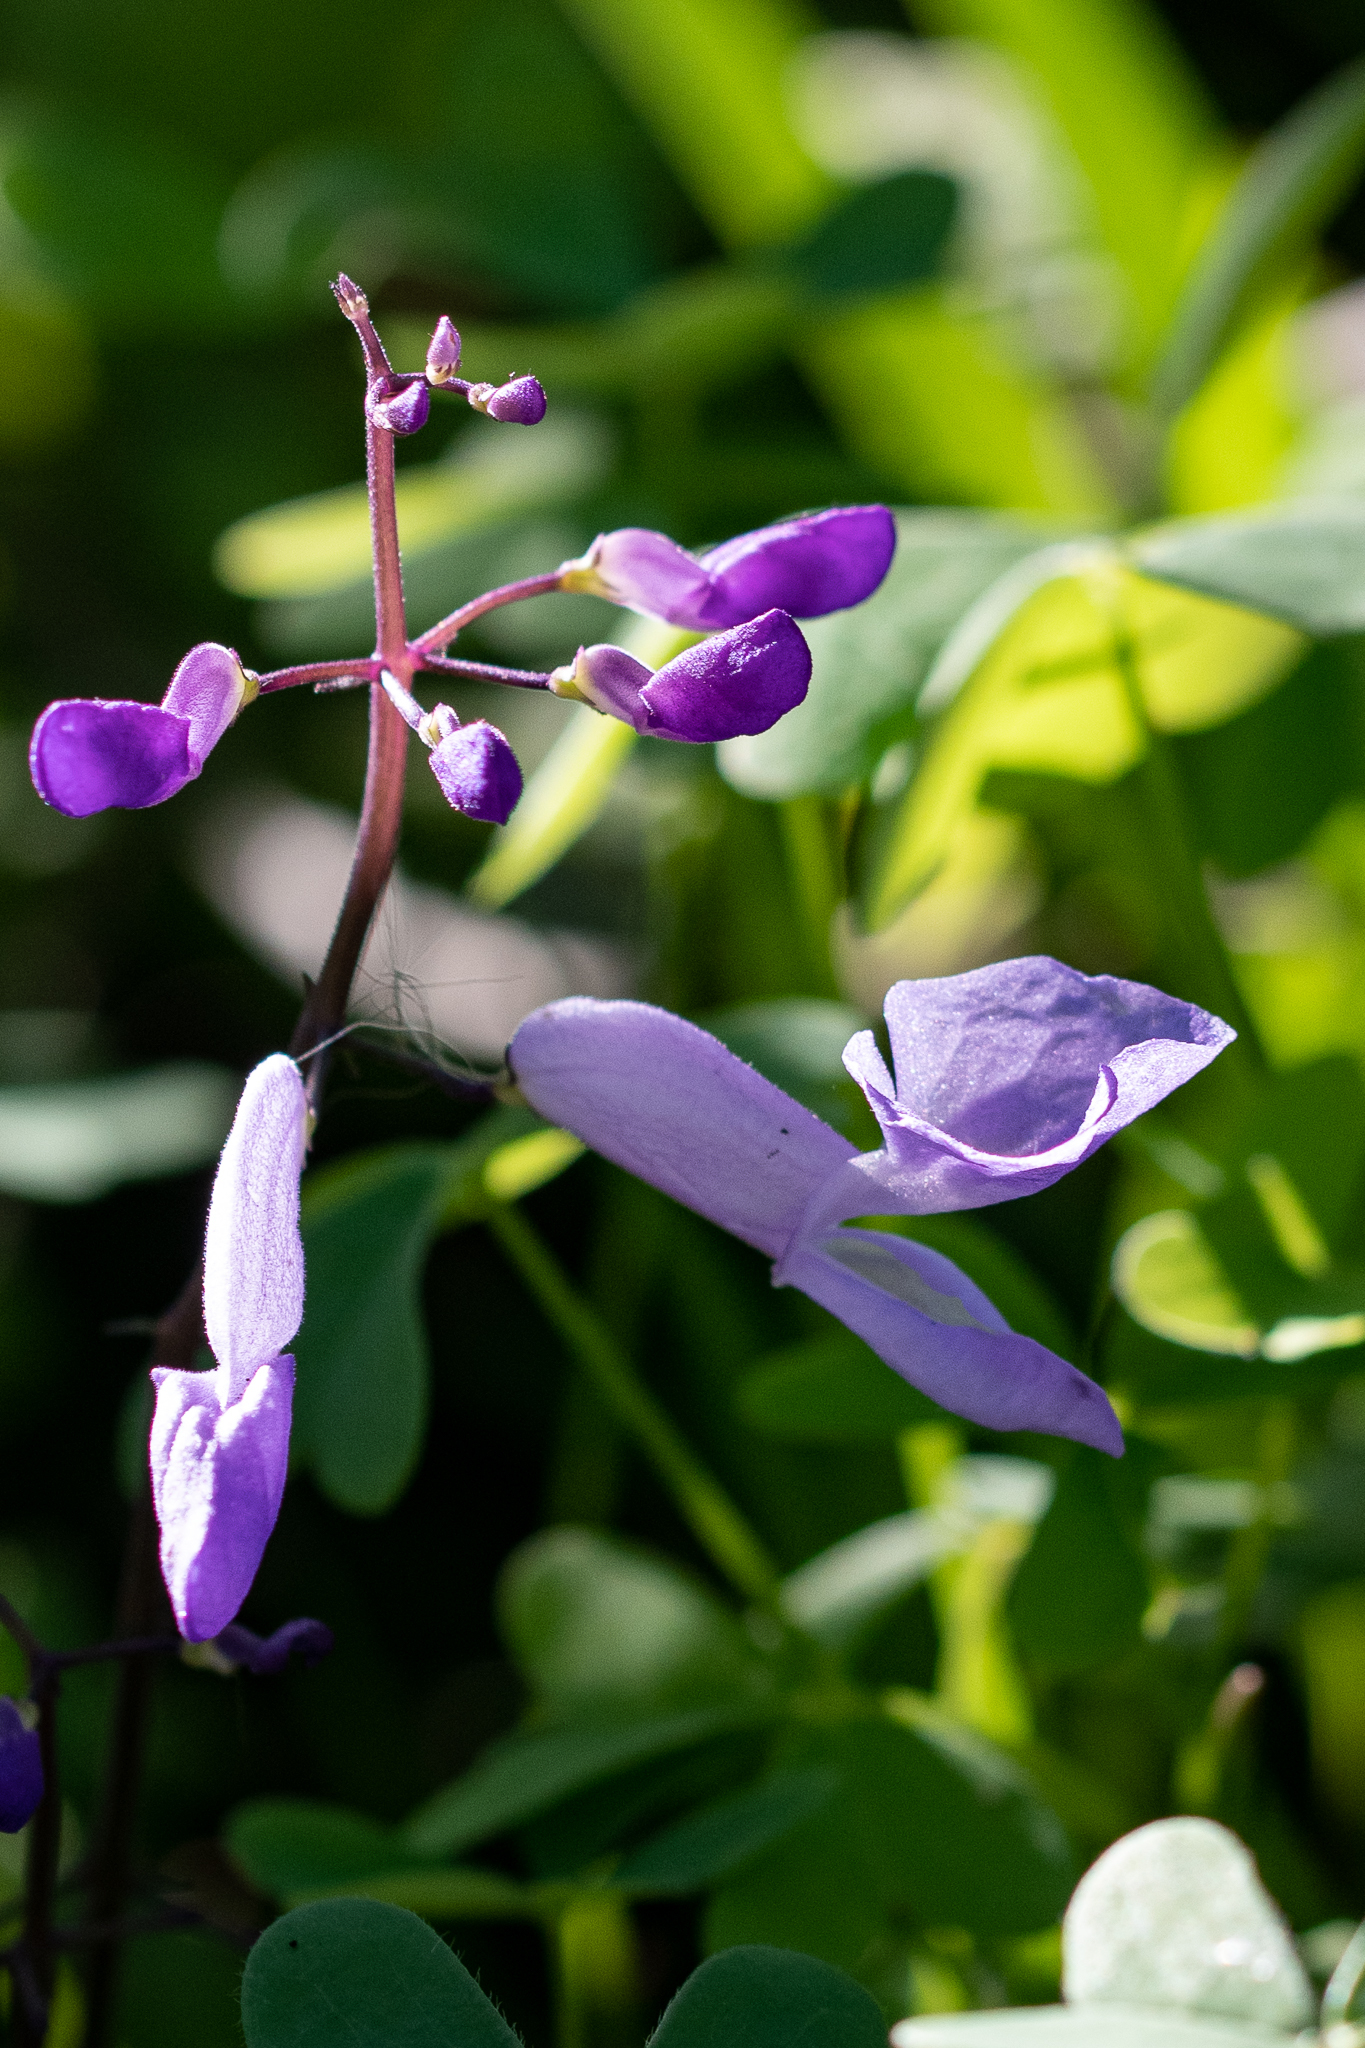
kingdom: Plantae
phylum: Tracheophyta
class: Magnoliopsida
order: Lamiales
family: Lamiaceae
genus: Plectranthus
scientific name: Plectranthus saccatus
